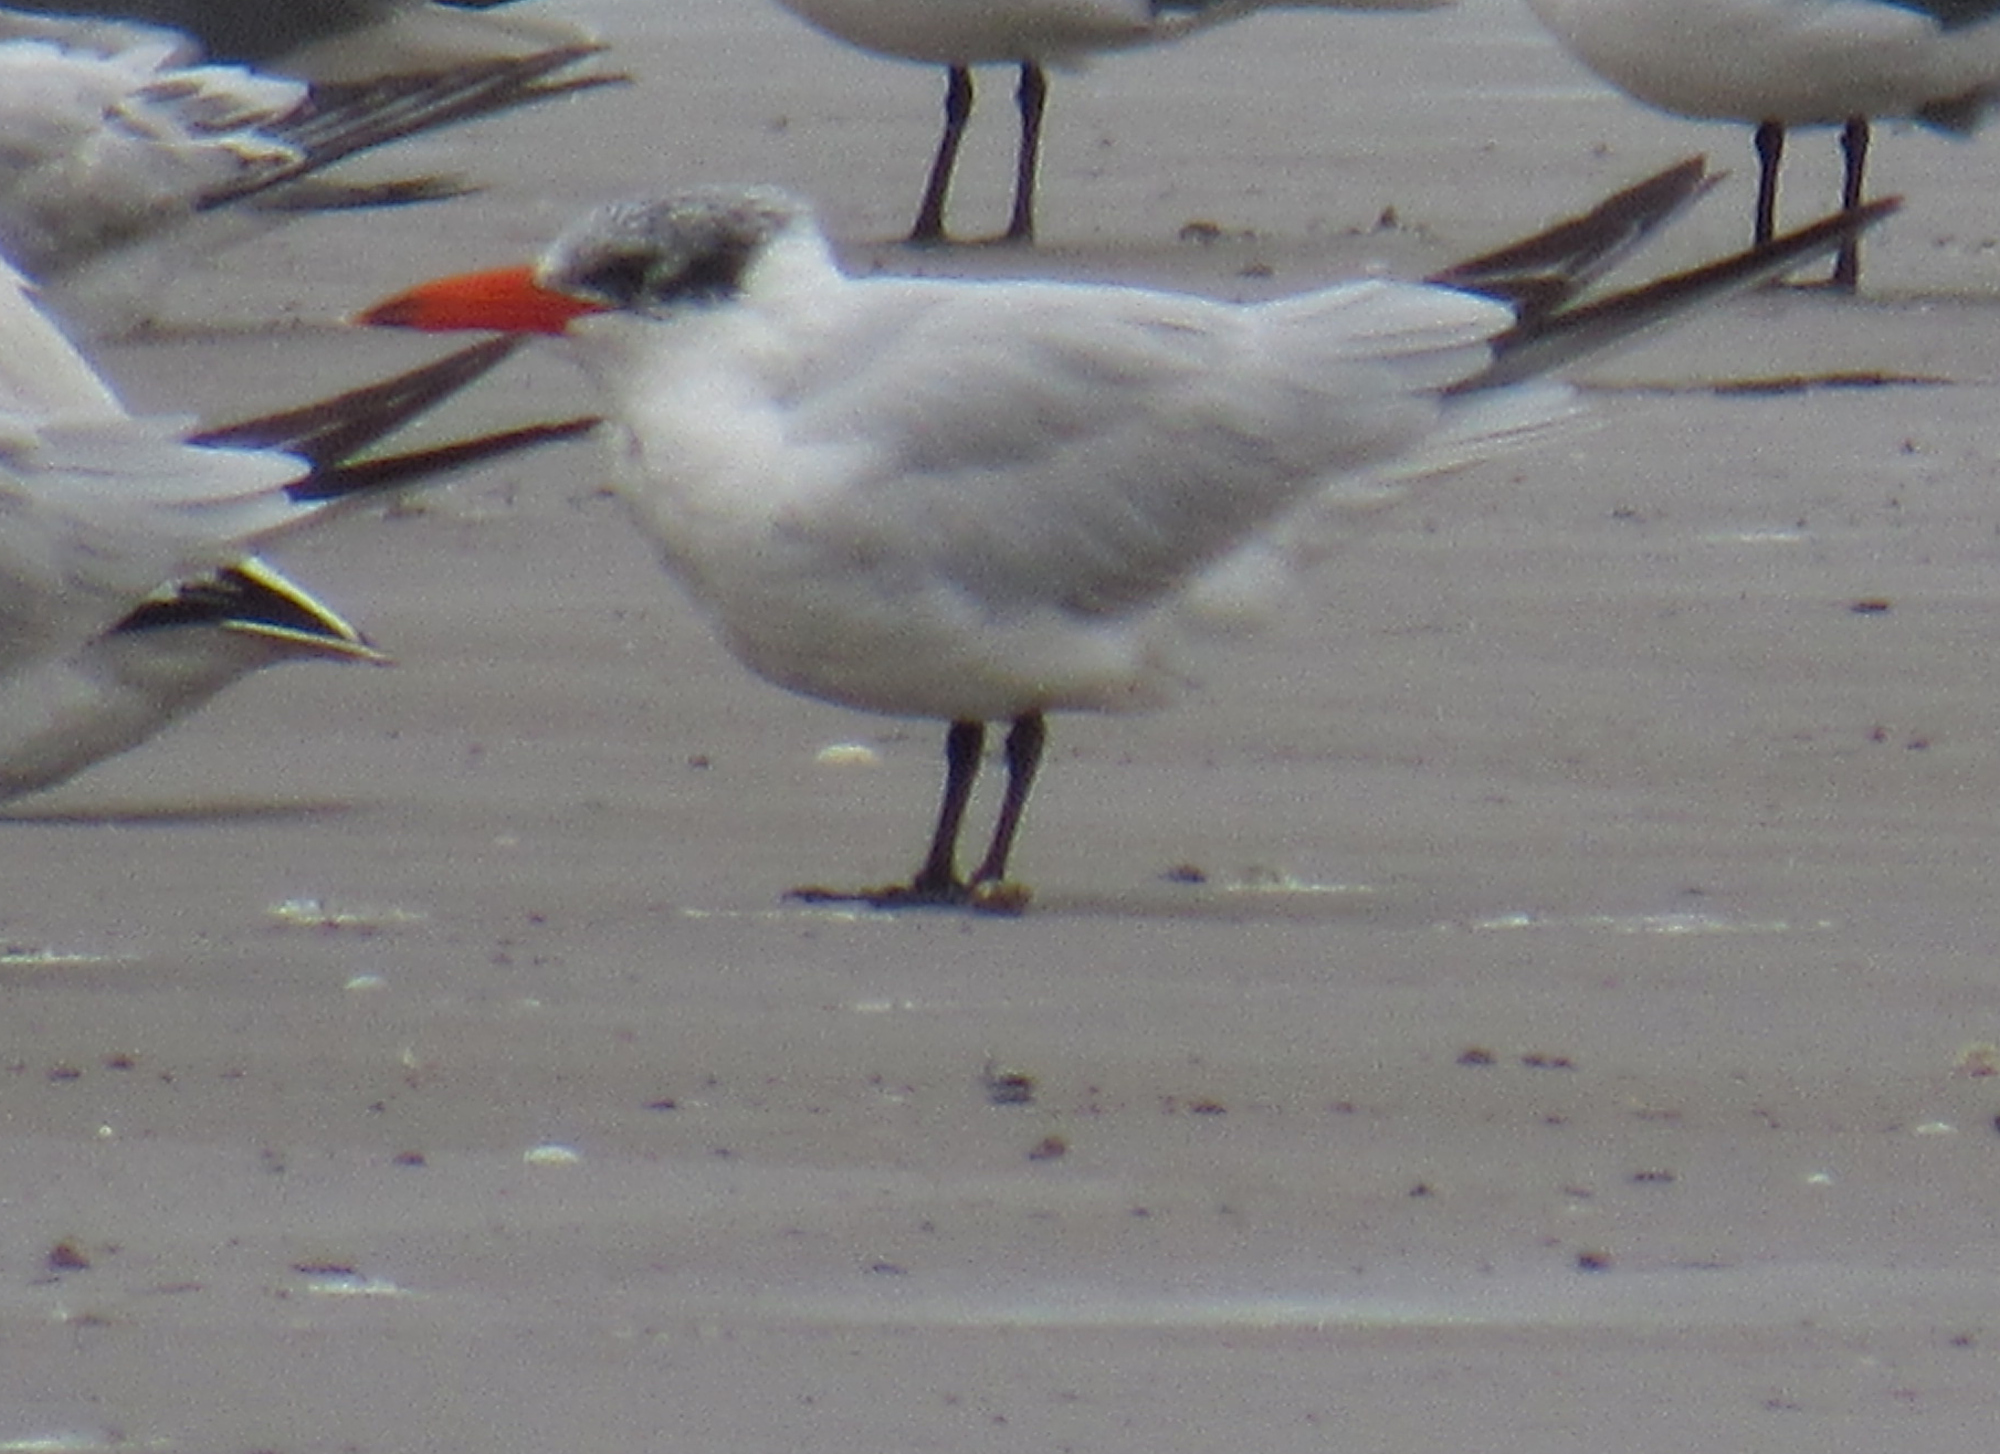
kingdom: Animalia
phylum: Chordata
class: Aves
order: Charadriiformes
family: Laridae
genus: Hydroprogne
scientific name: Hydroprogne caspia
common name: Caspian tern
